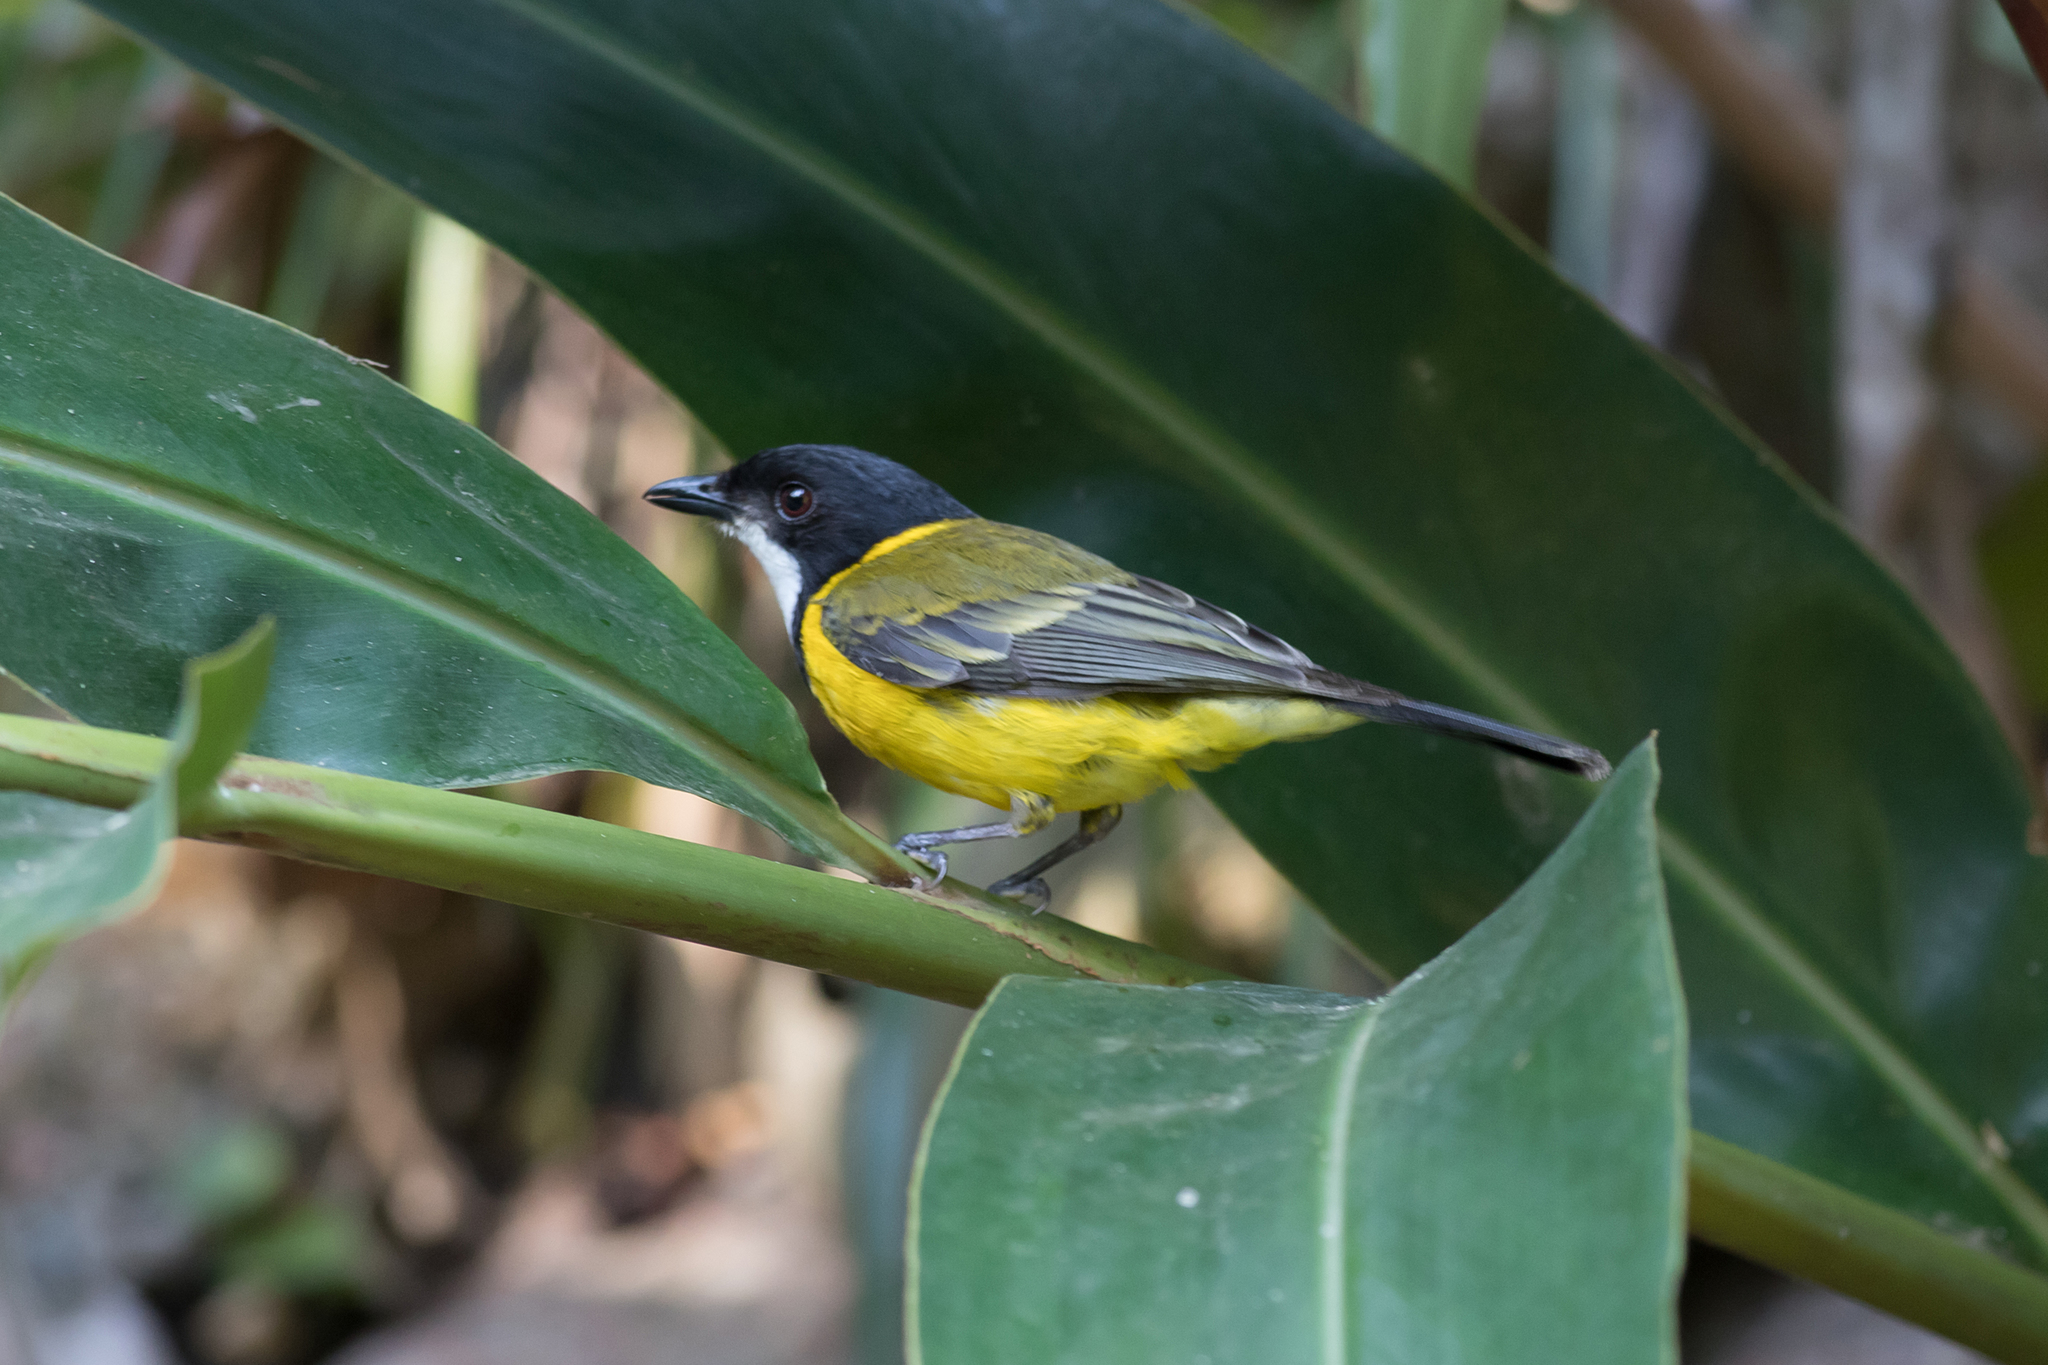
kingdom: Animalia
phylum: Chordata
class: Aves
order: Passeriformes
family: Pachycephalidae
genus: Pachycephala
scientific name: Pachycephala pectoralis
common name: Australian golden whistler
